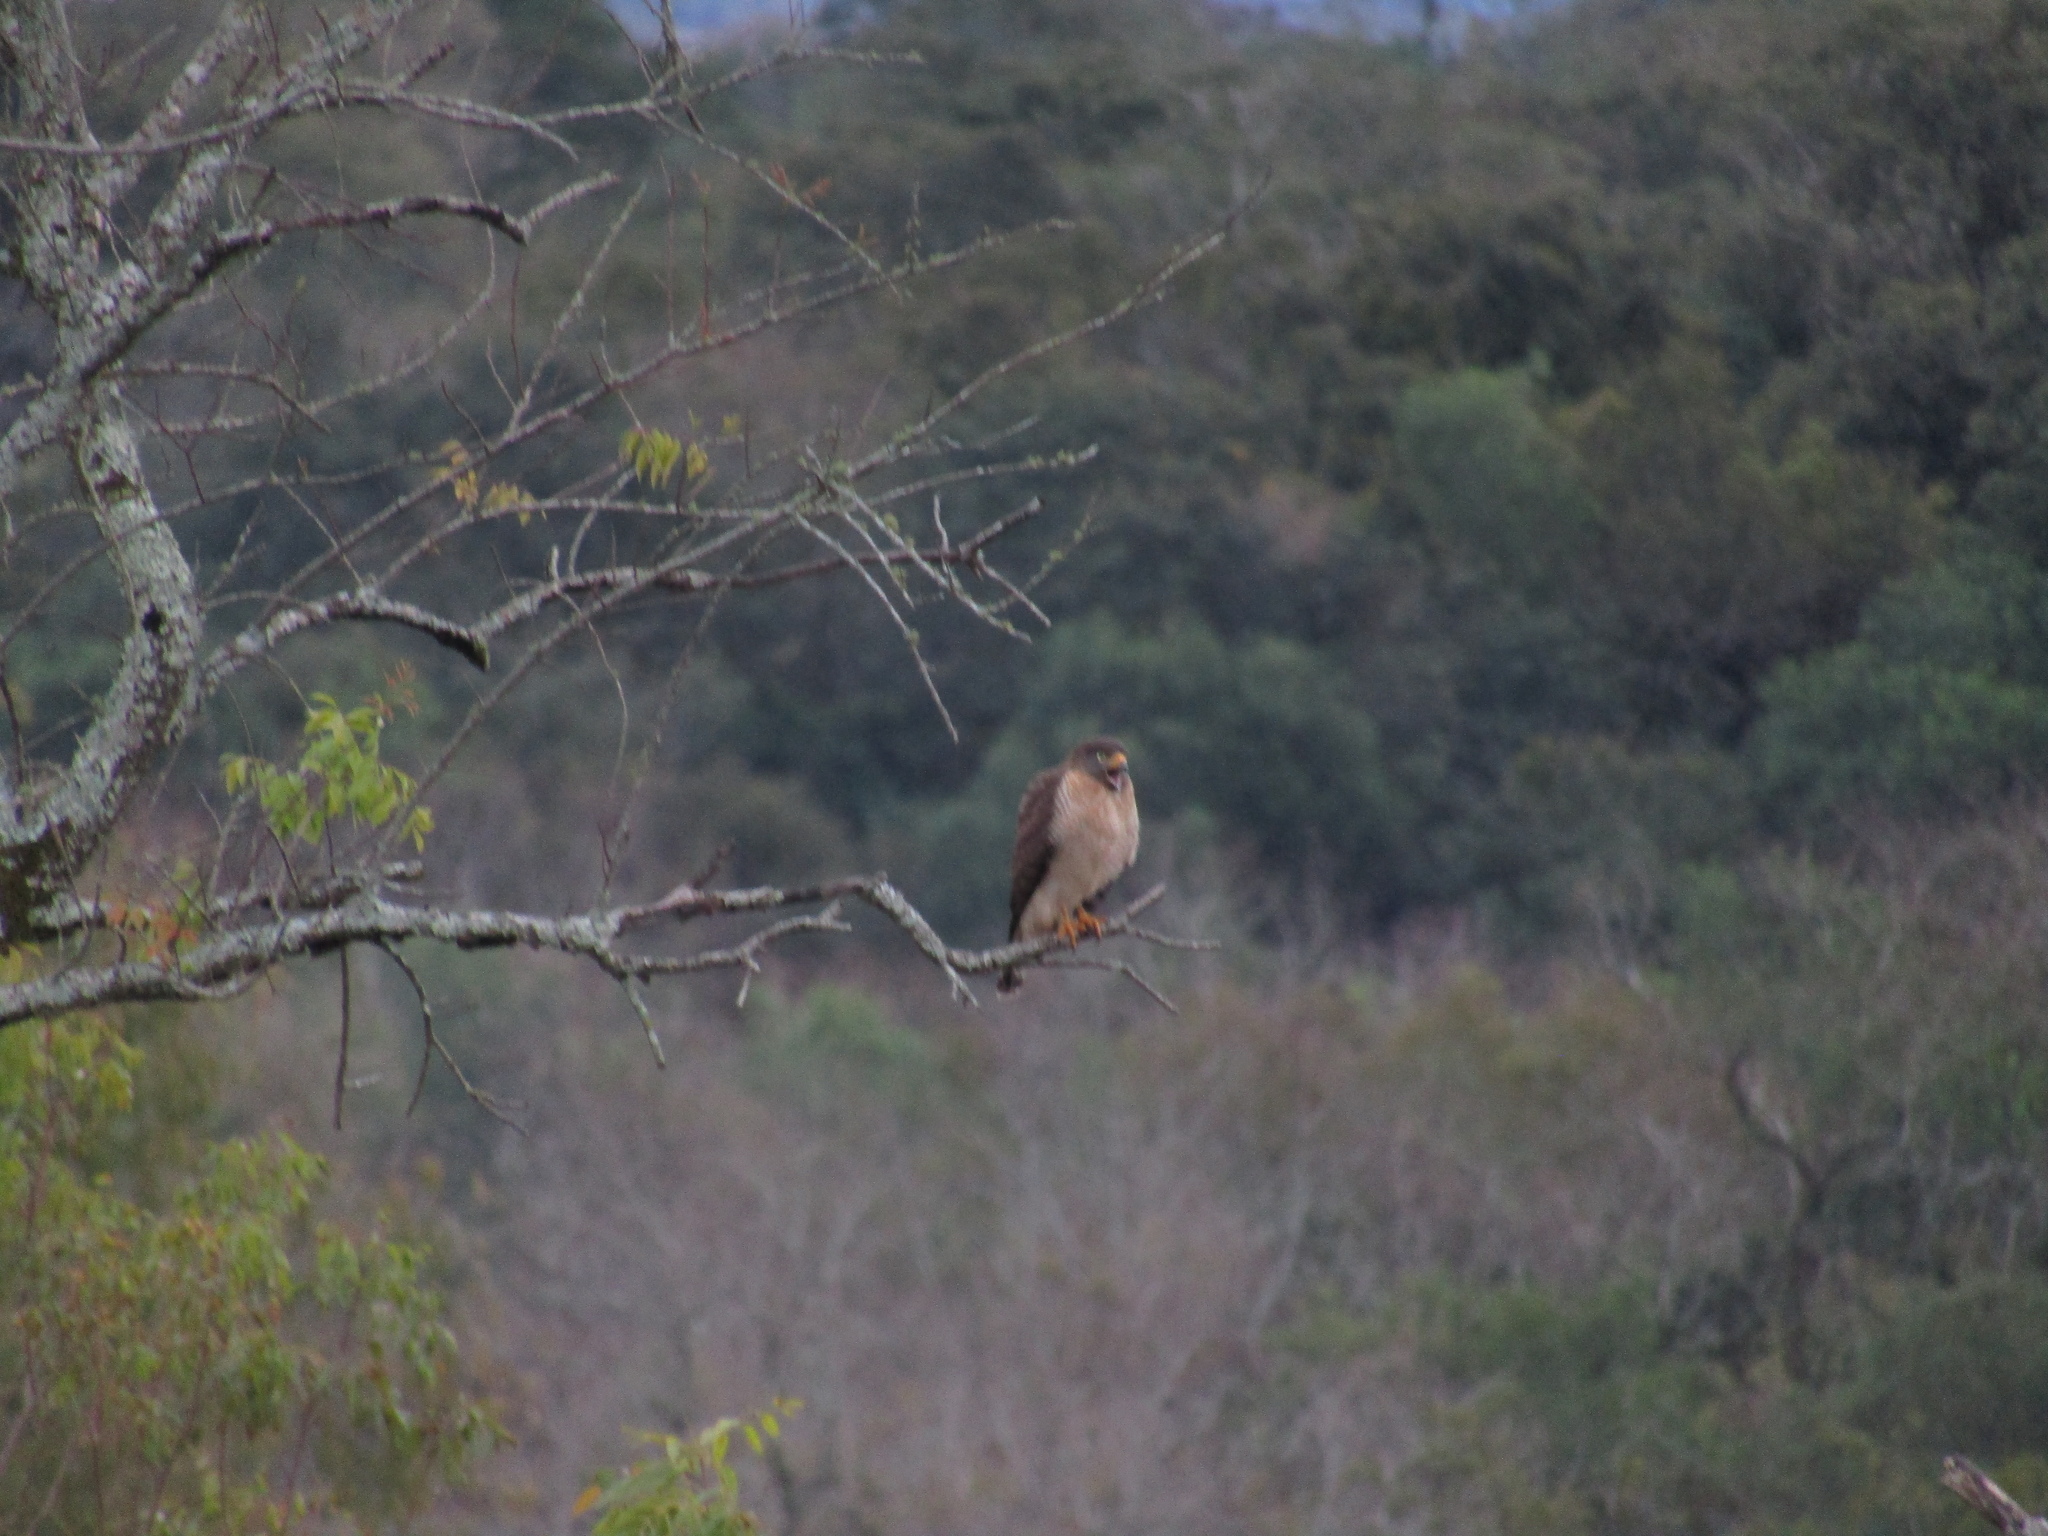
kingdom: Animalia
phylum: Chordata
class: Aves
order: Accipitriformes
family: Accipitridae
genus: Rupornis
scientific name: Rupornis magnirostris
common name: Roadside hawk
